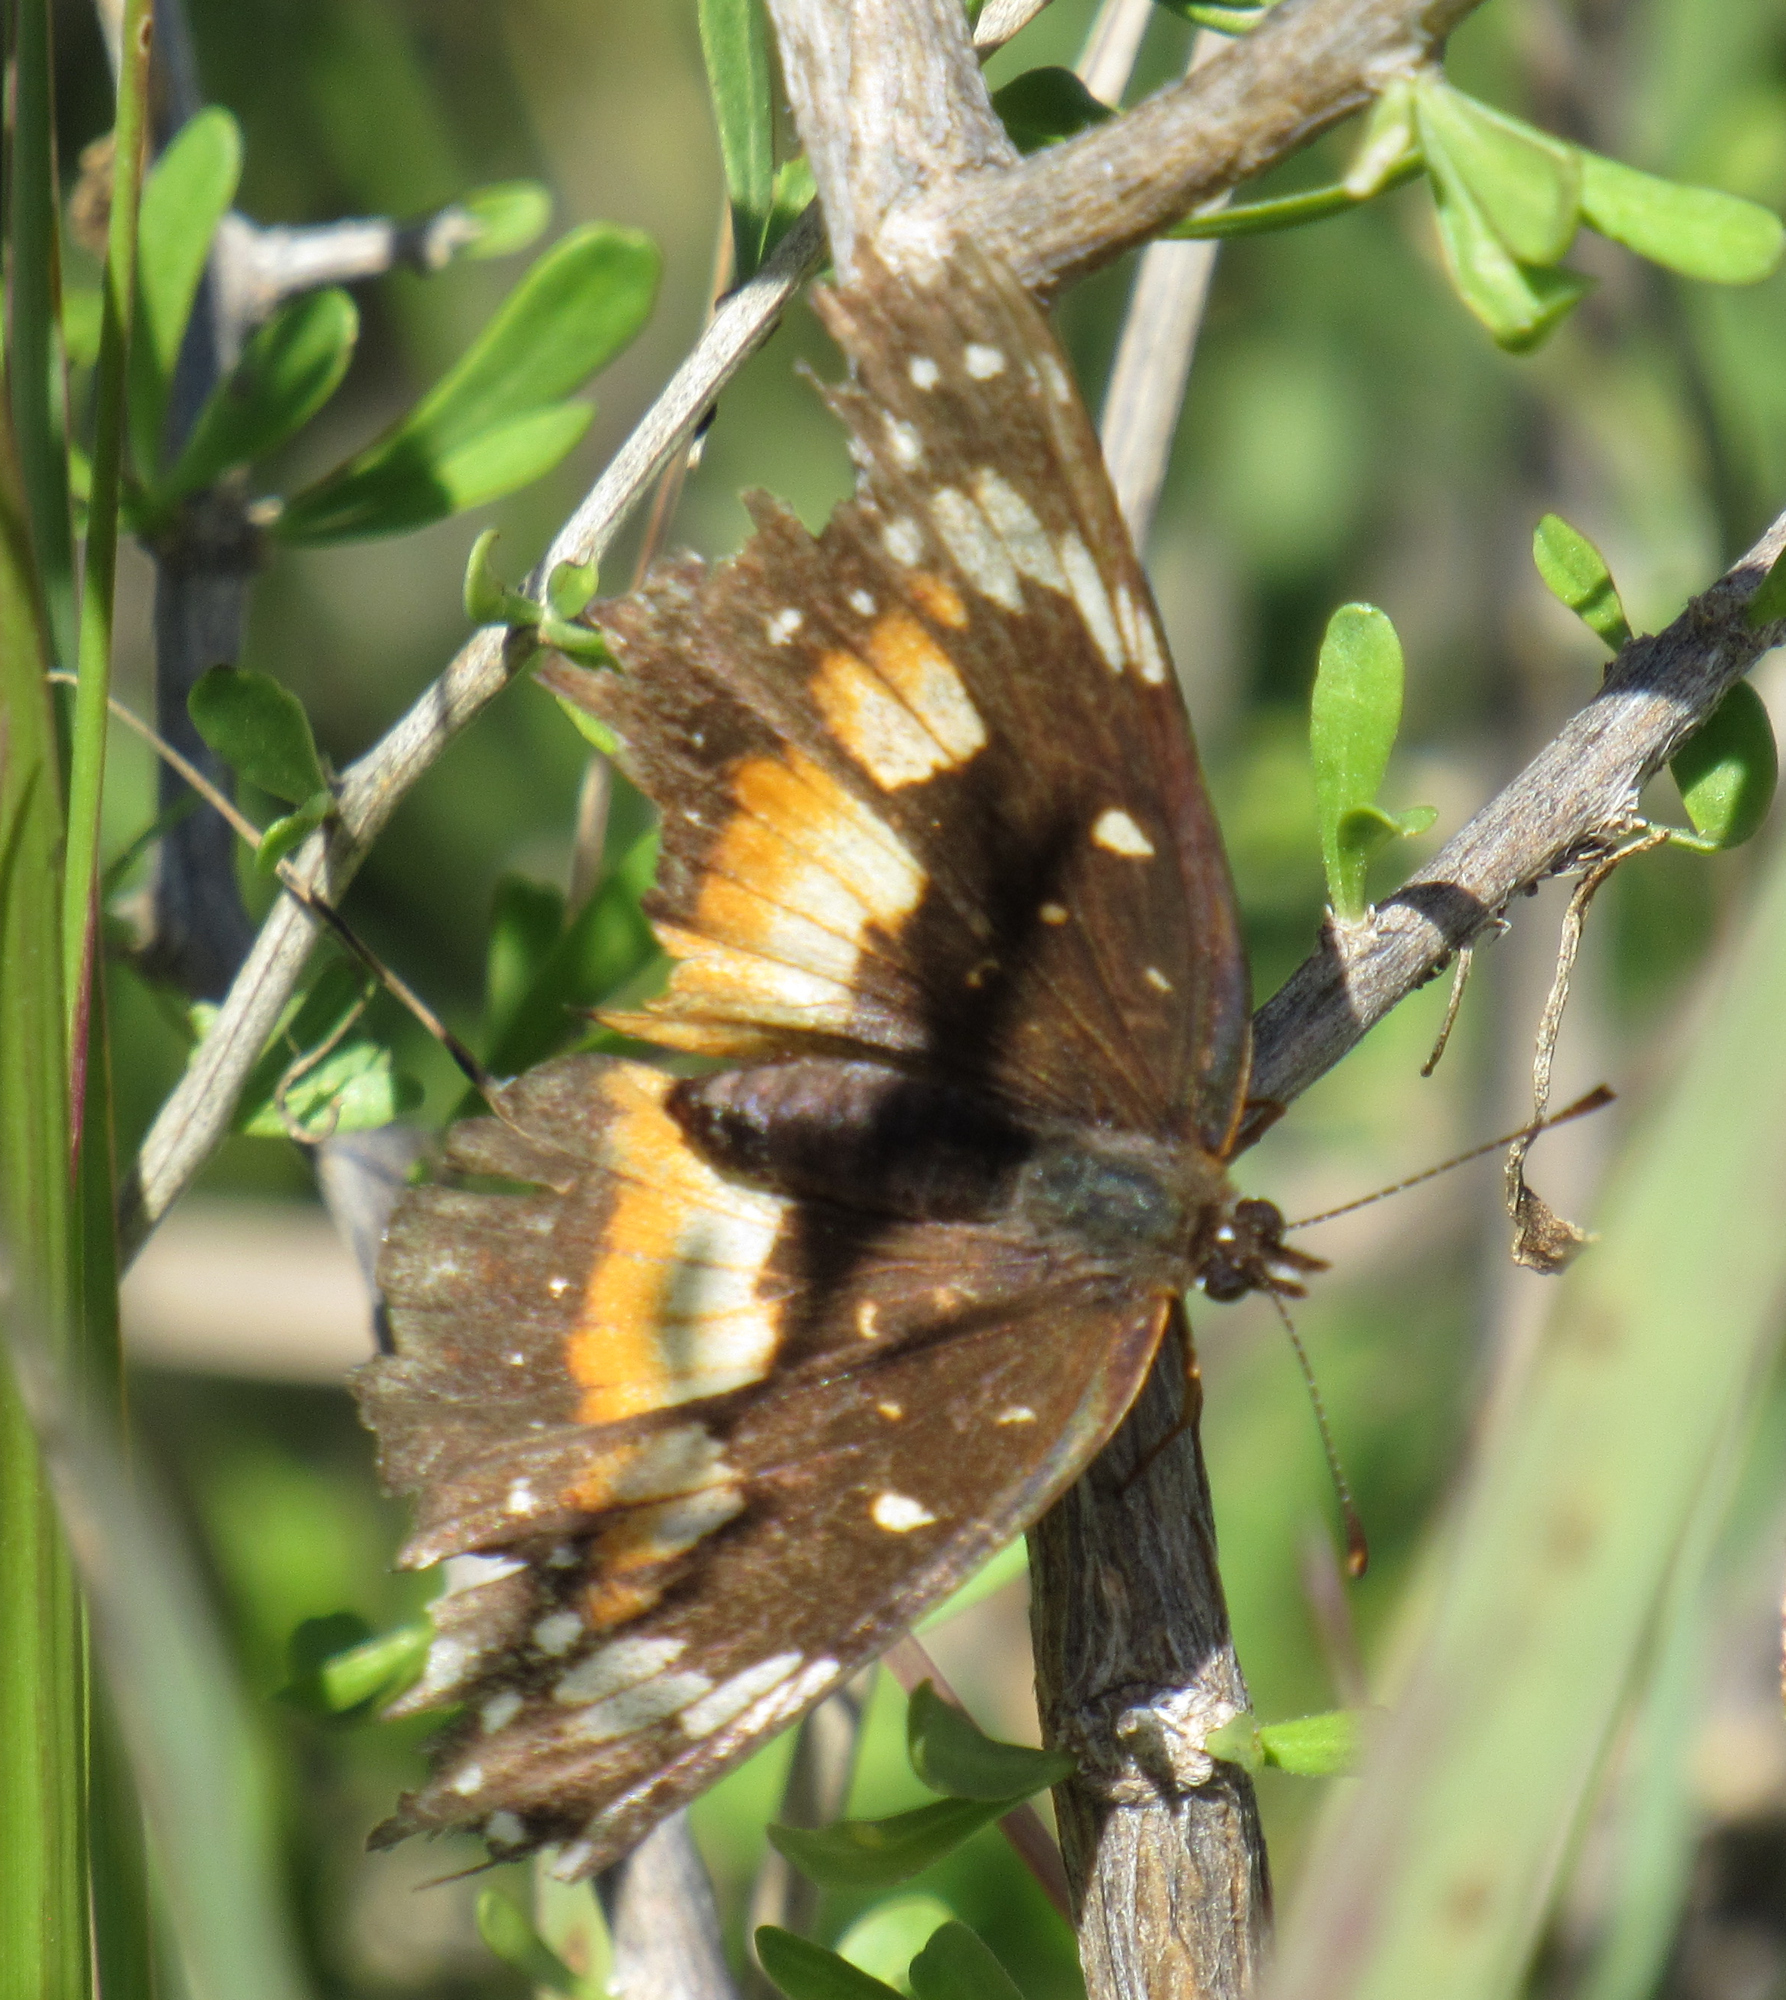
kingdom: Animalia
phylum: Arthropoda
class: Insecta
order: Lepidoptera
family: Nymphalidae
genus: Chlosyne
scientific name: Chlosyne lacinia
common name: Bordered patch
